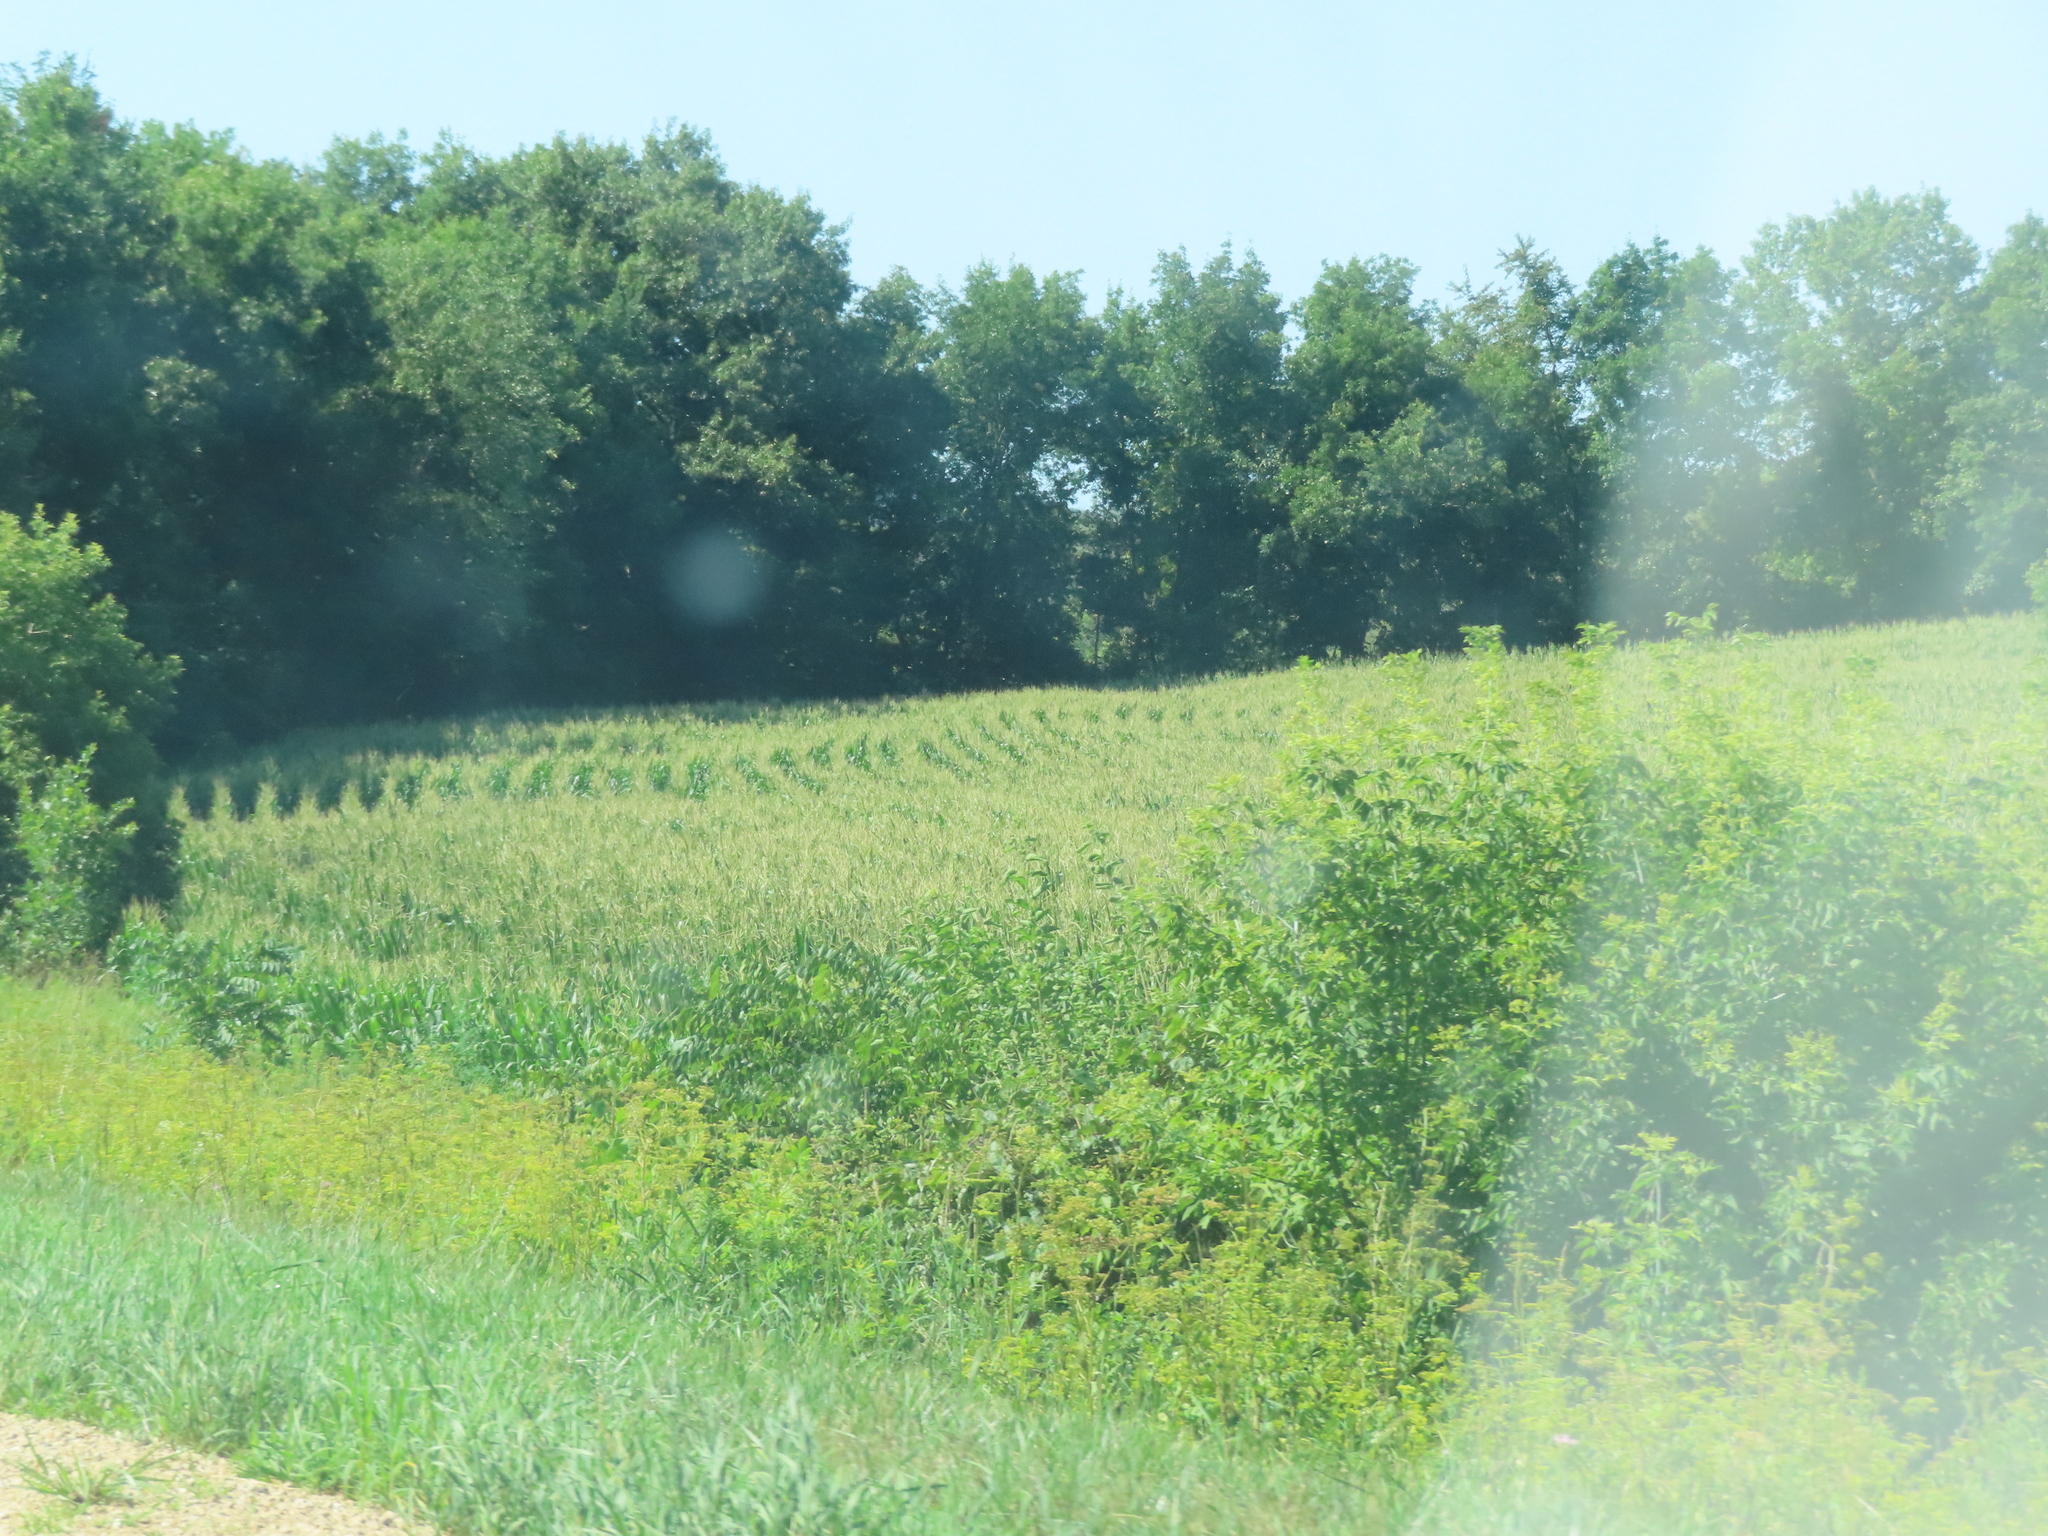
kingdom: Plantae
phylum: Tracheophyta
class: Magnoliopsida
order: Sapindales
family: Sapindaceae
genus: Acer
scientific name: Acer negundo
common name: Ashleaf maple
